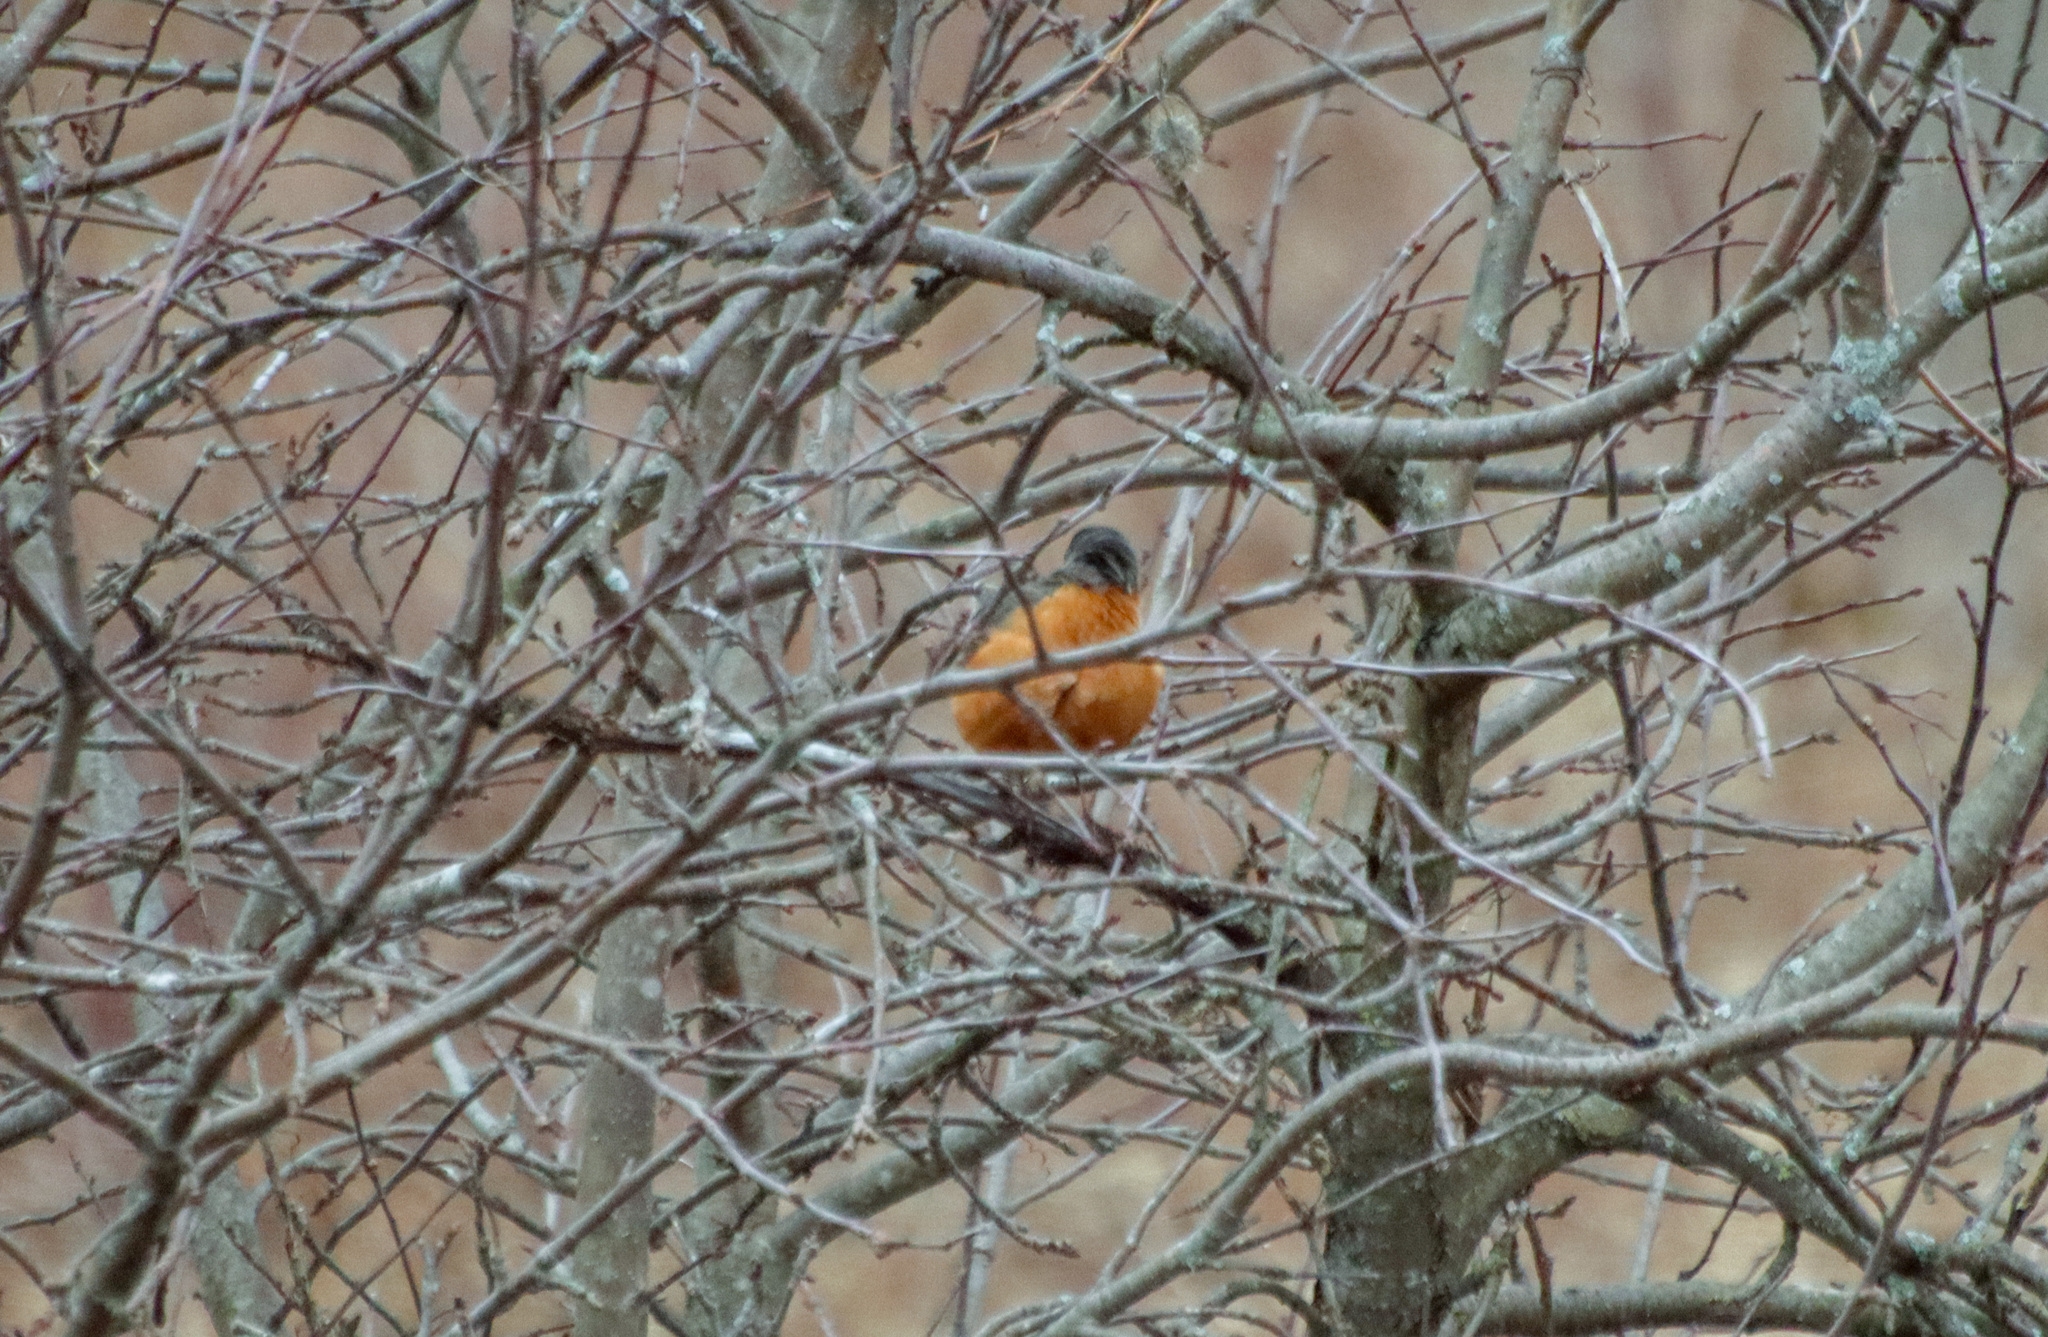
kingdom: Animalia
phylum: Chordata
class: Aves
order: Passeriformes
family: Turdidae
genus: Turdus
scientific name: Turdus migratorius
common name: American robin
